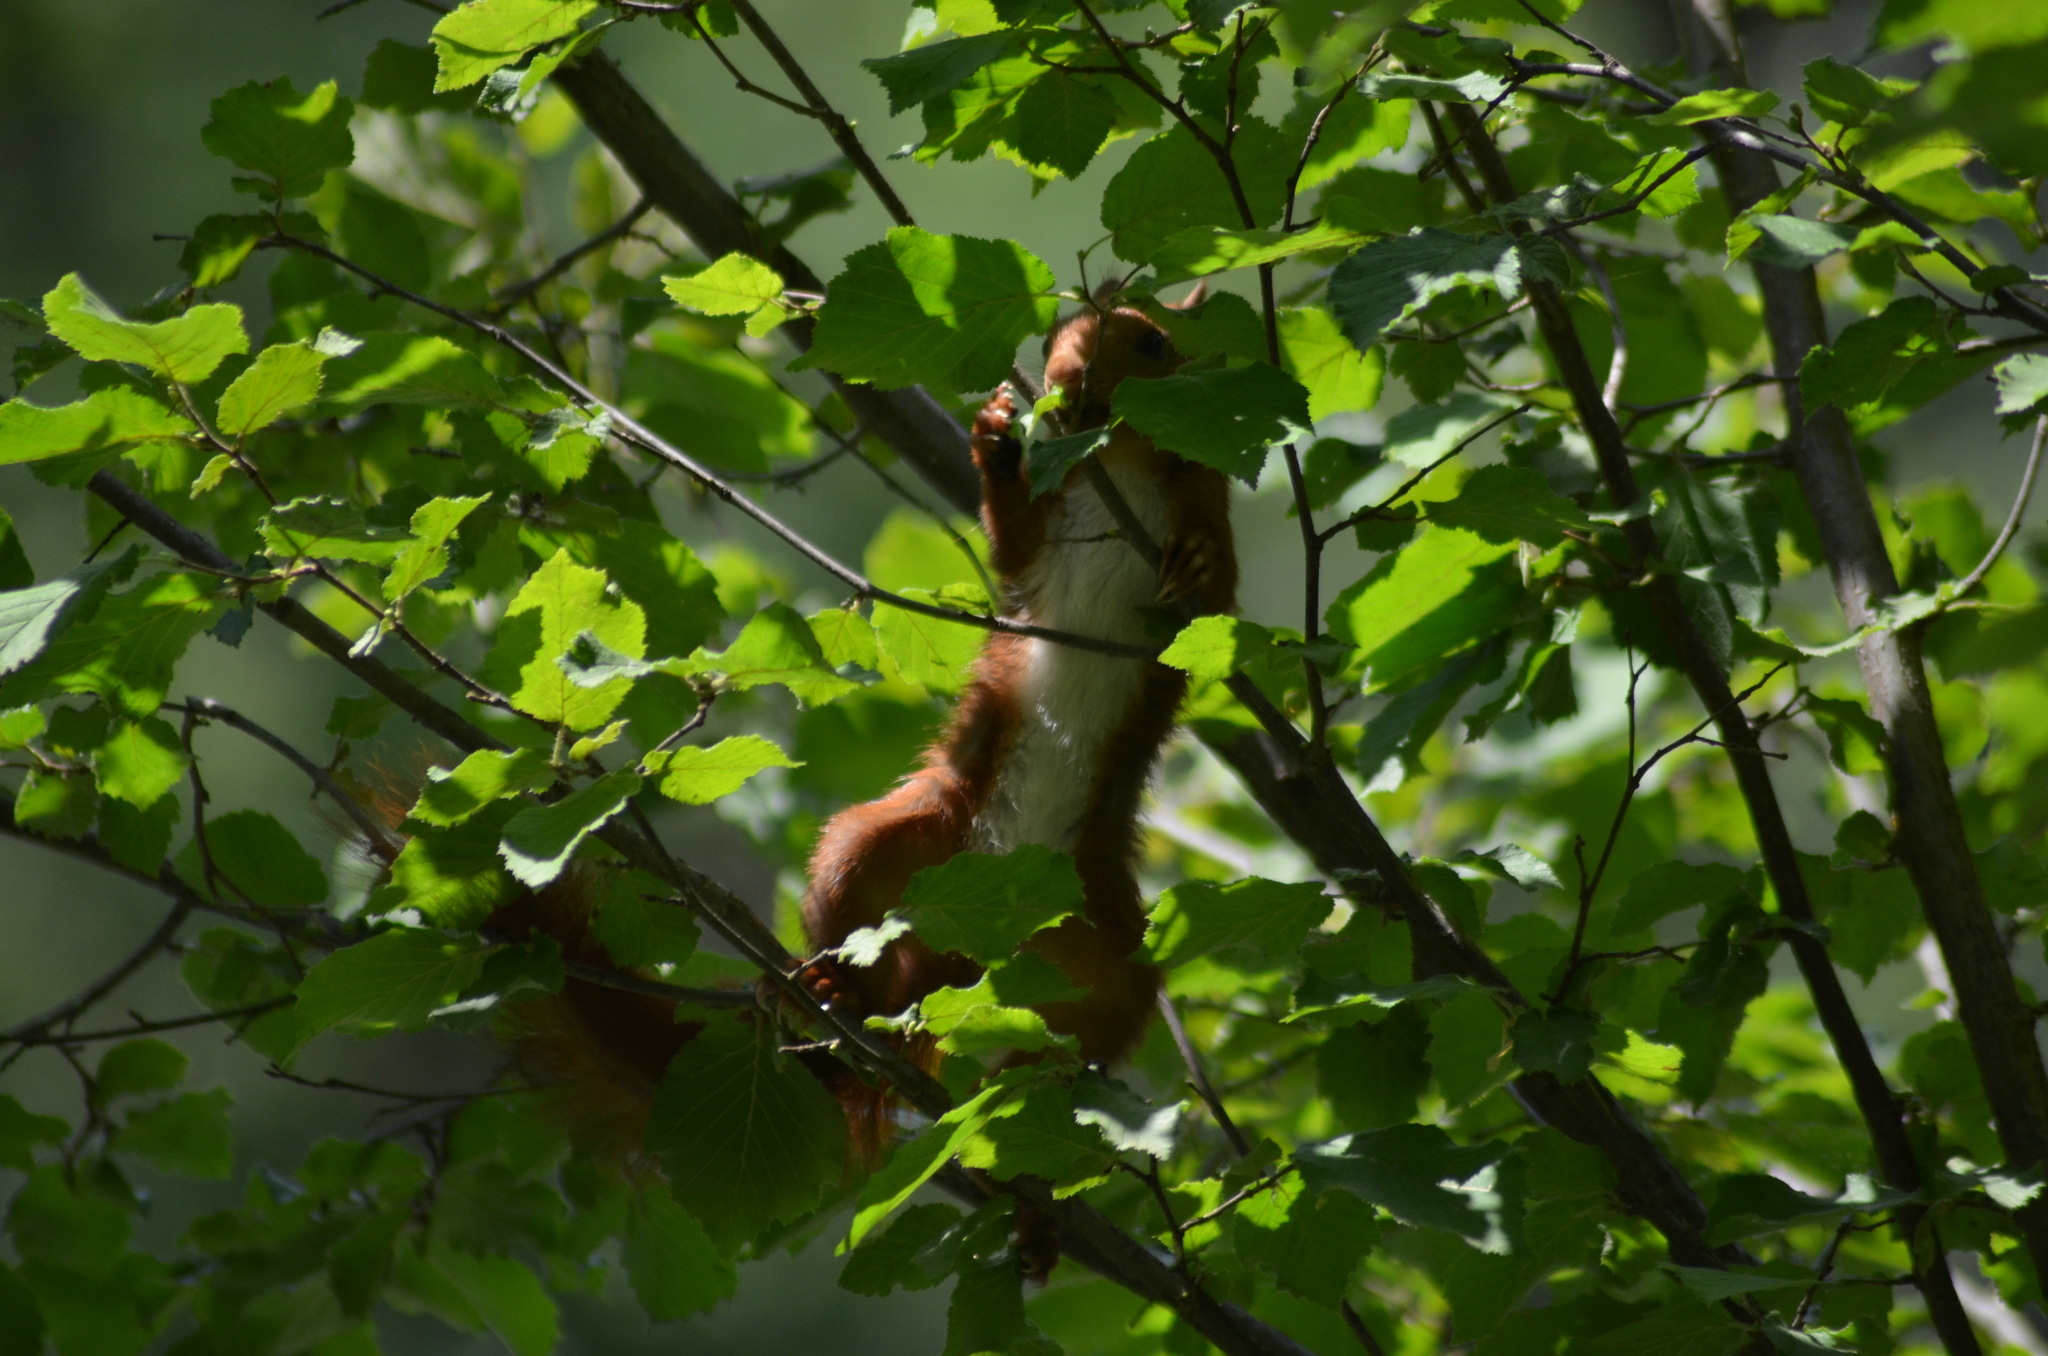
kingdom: Animalia
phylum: Chordata
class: Mammalia
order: Rodentia
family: Sciuridae
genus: Sciurus
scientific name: Sciurus vulgaris
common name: Eurasian red squirrel
